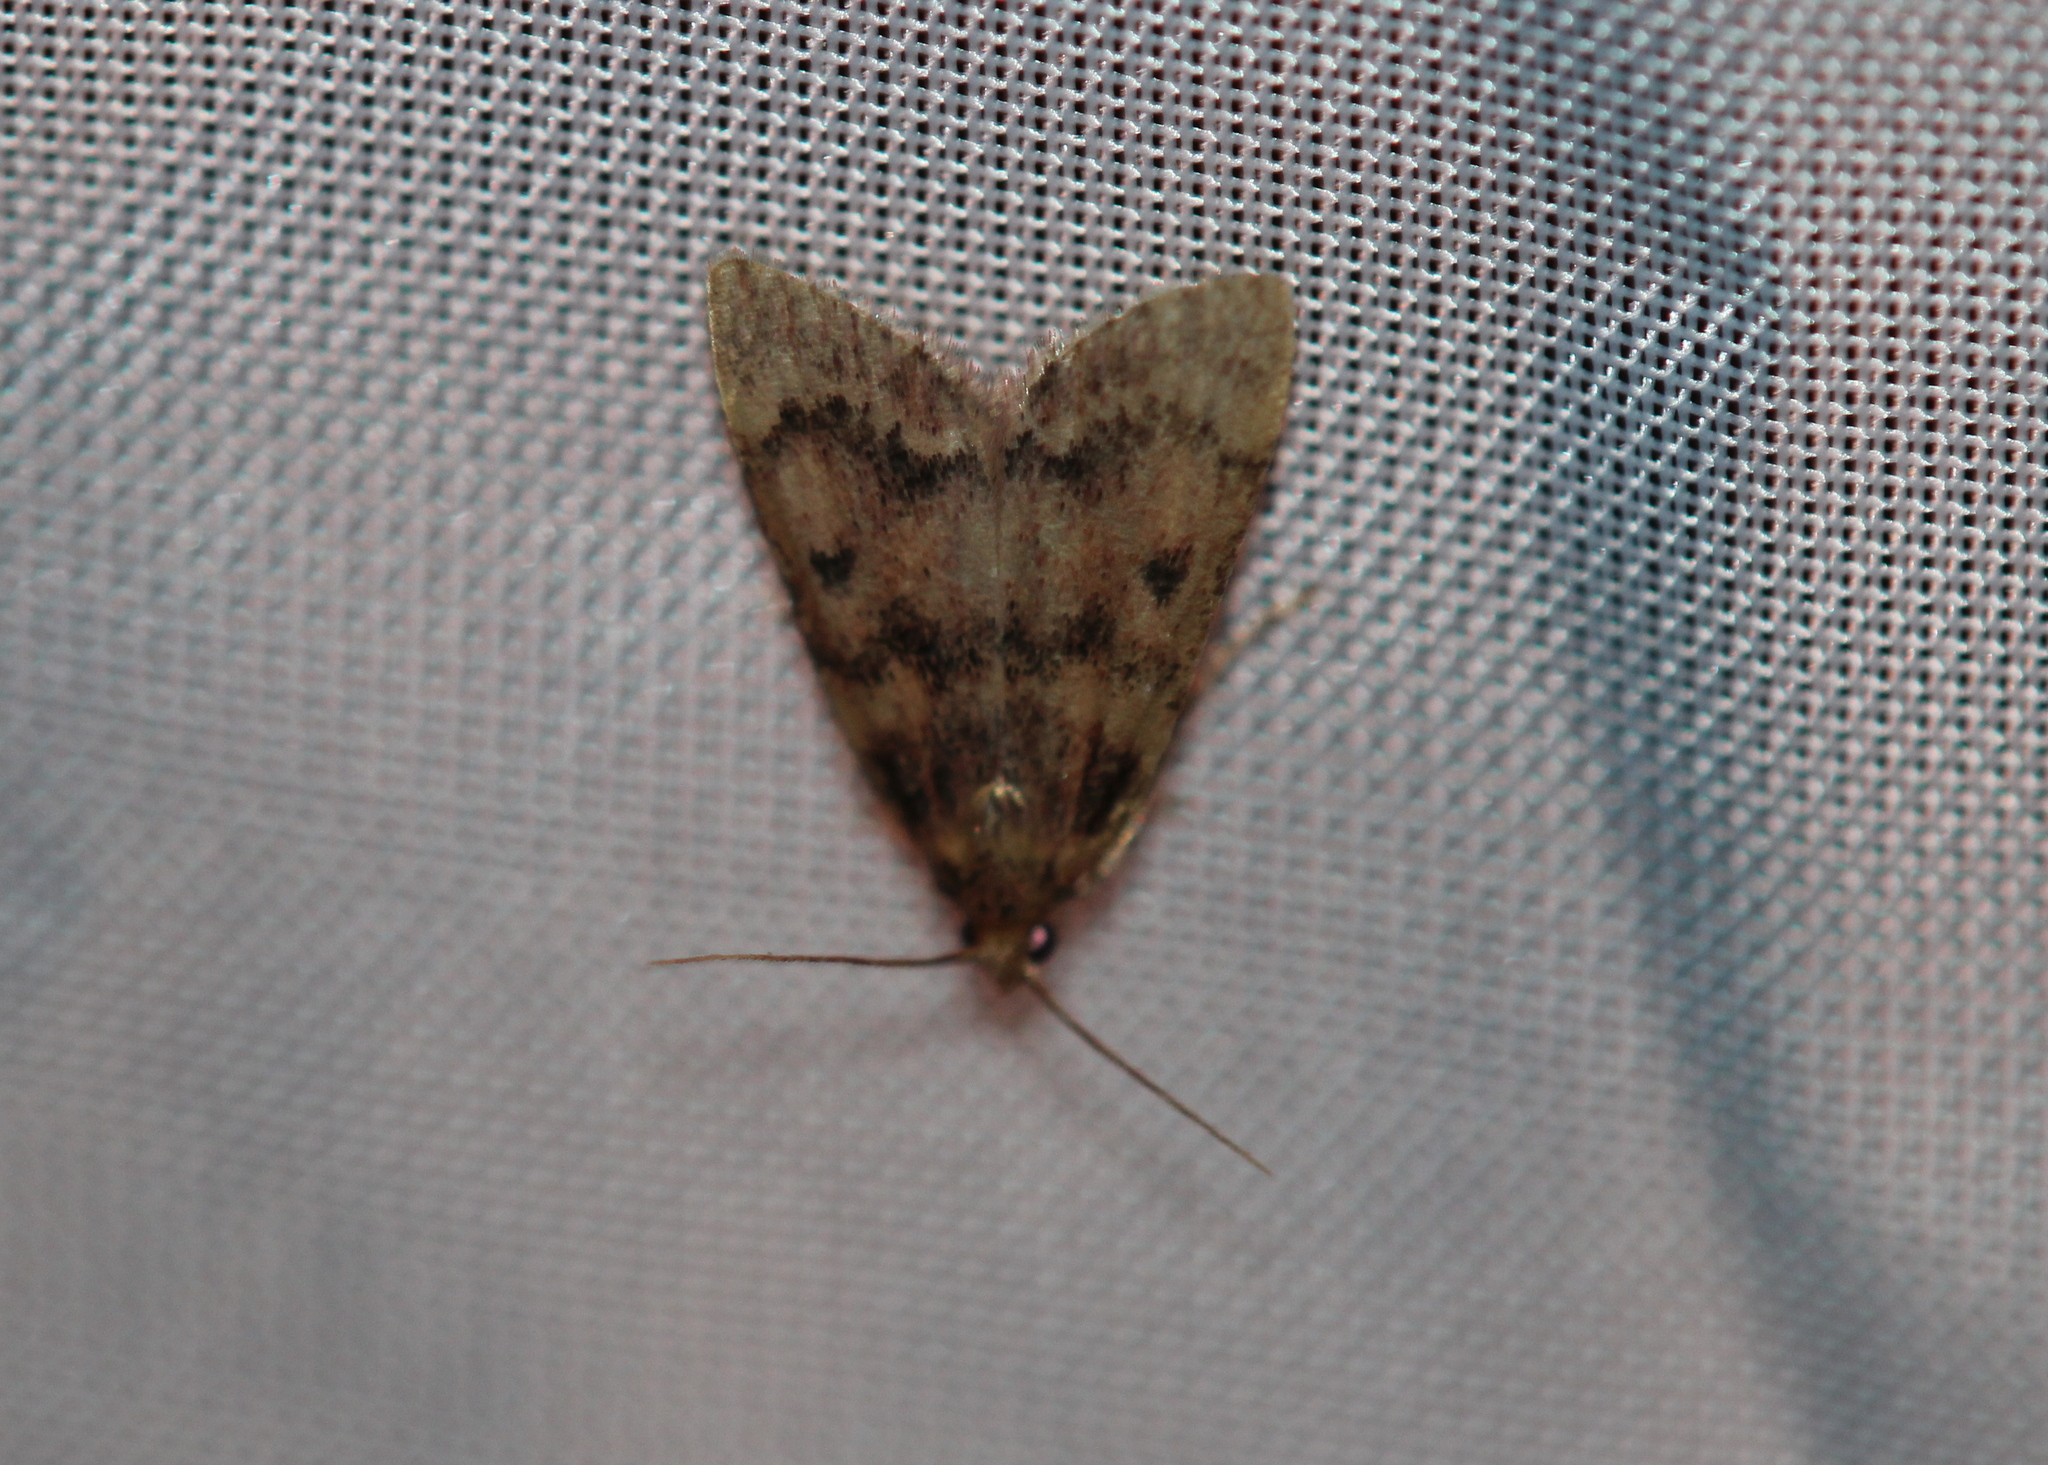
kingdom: Animalia
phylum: Arthropoda
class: Insecta
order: Lepidoptera
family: Pyralidae
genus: Aglossa
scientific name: Aglossa disciferalis
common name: Pink-masked pyralid moth
